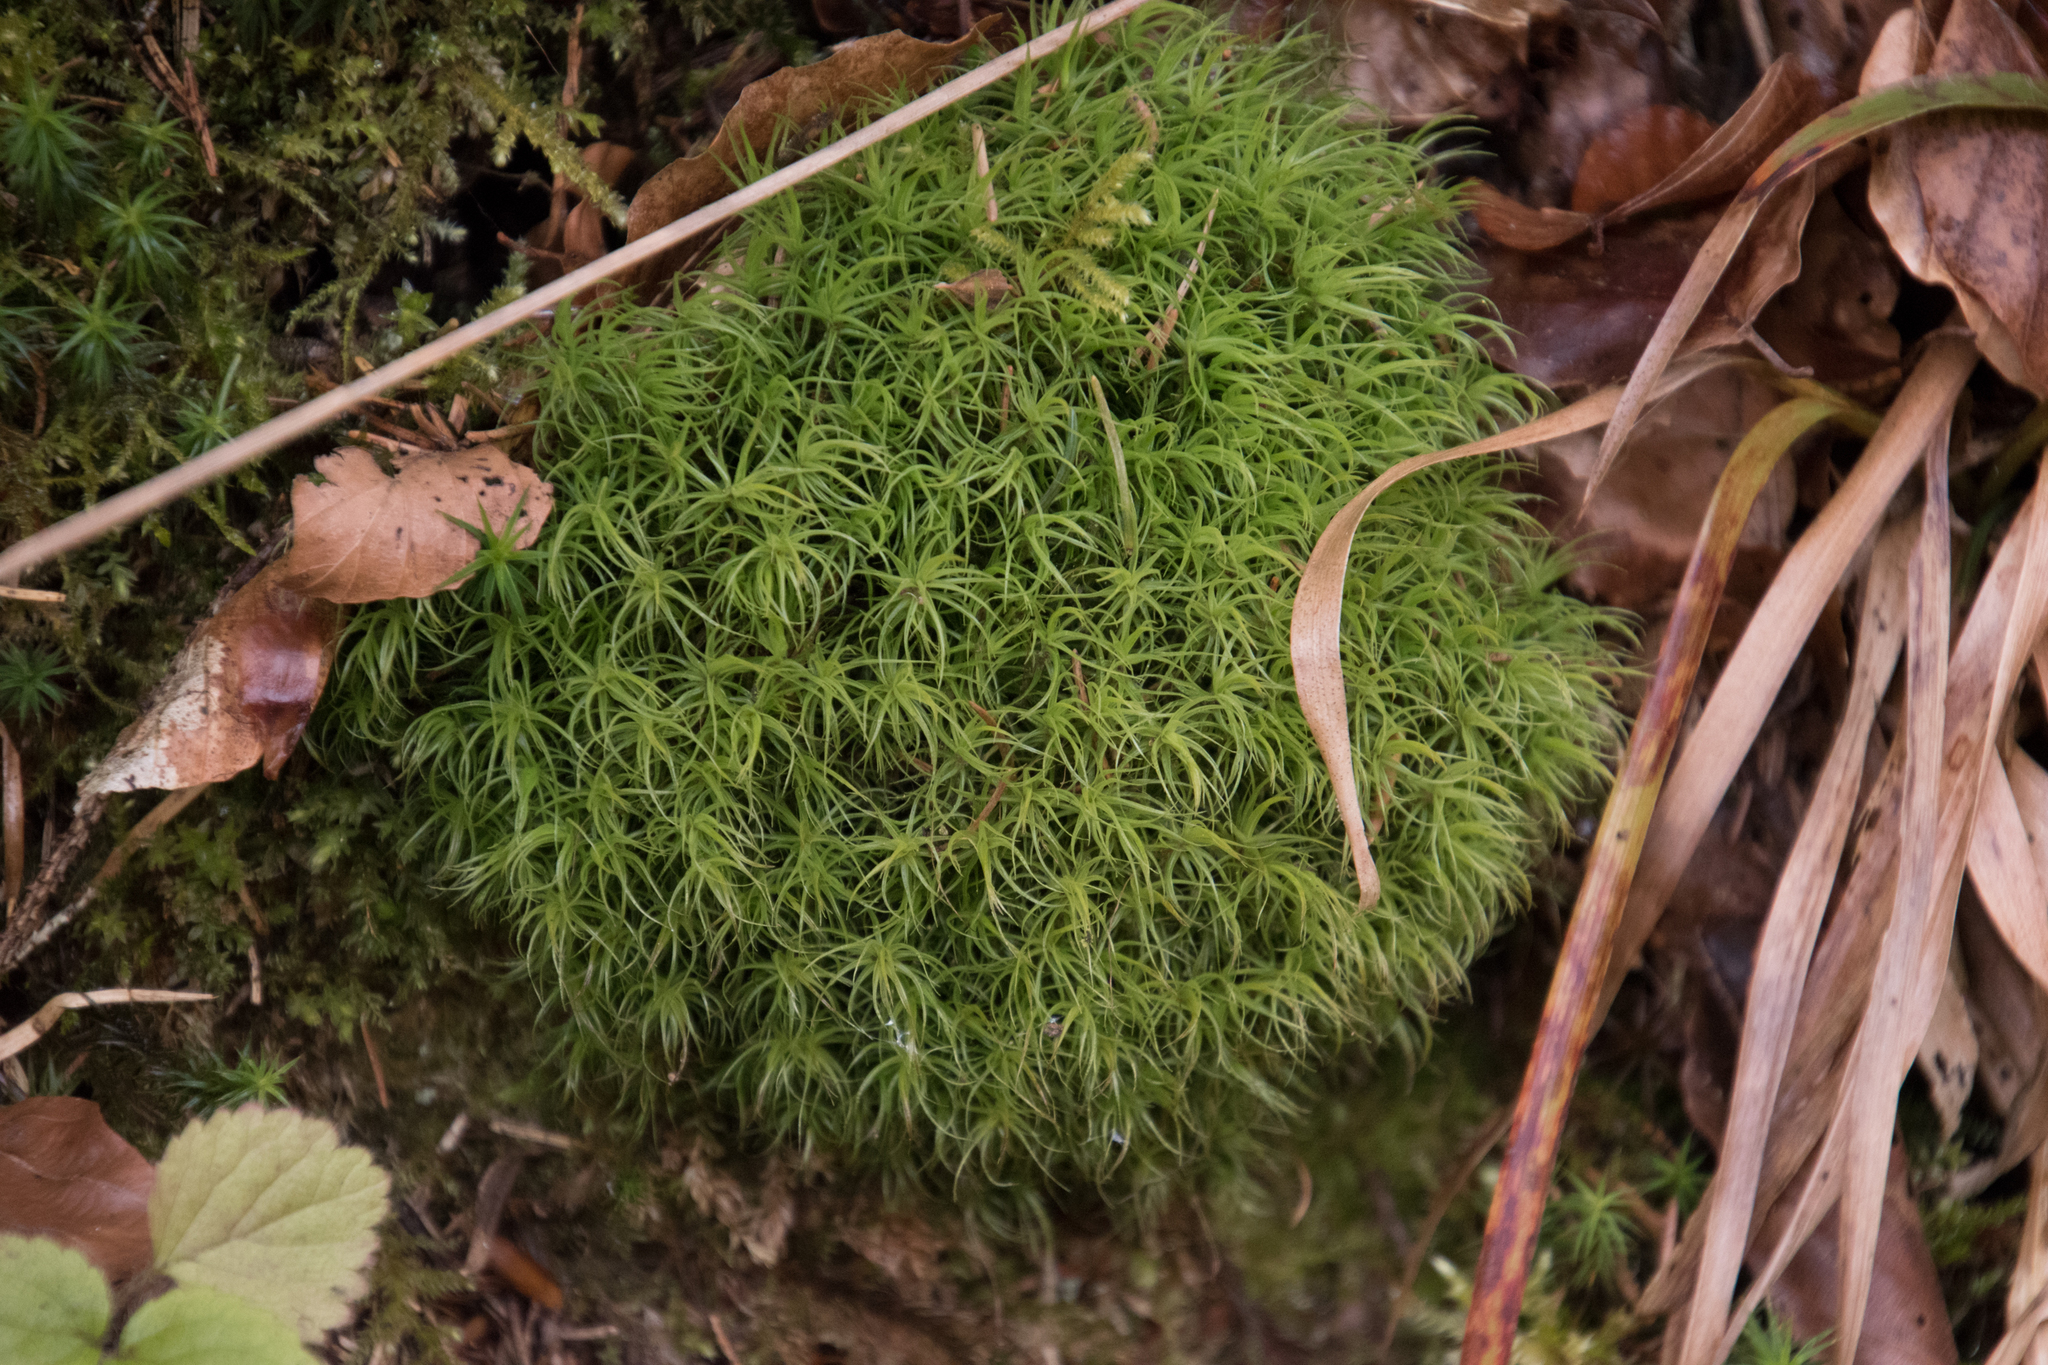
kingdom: Plantae
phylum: Bryophyta
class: Bryopsida
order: Dicranales
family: Dicranaceae
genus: Dicranum
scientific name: Dicranum scoparium
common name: Broom fork-moss
